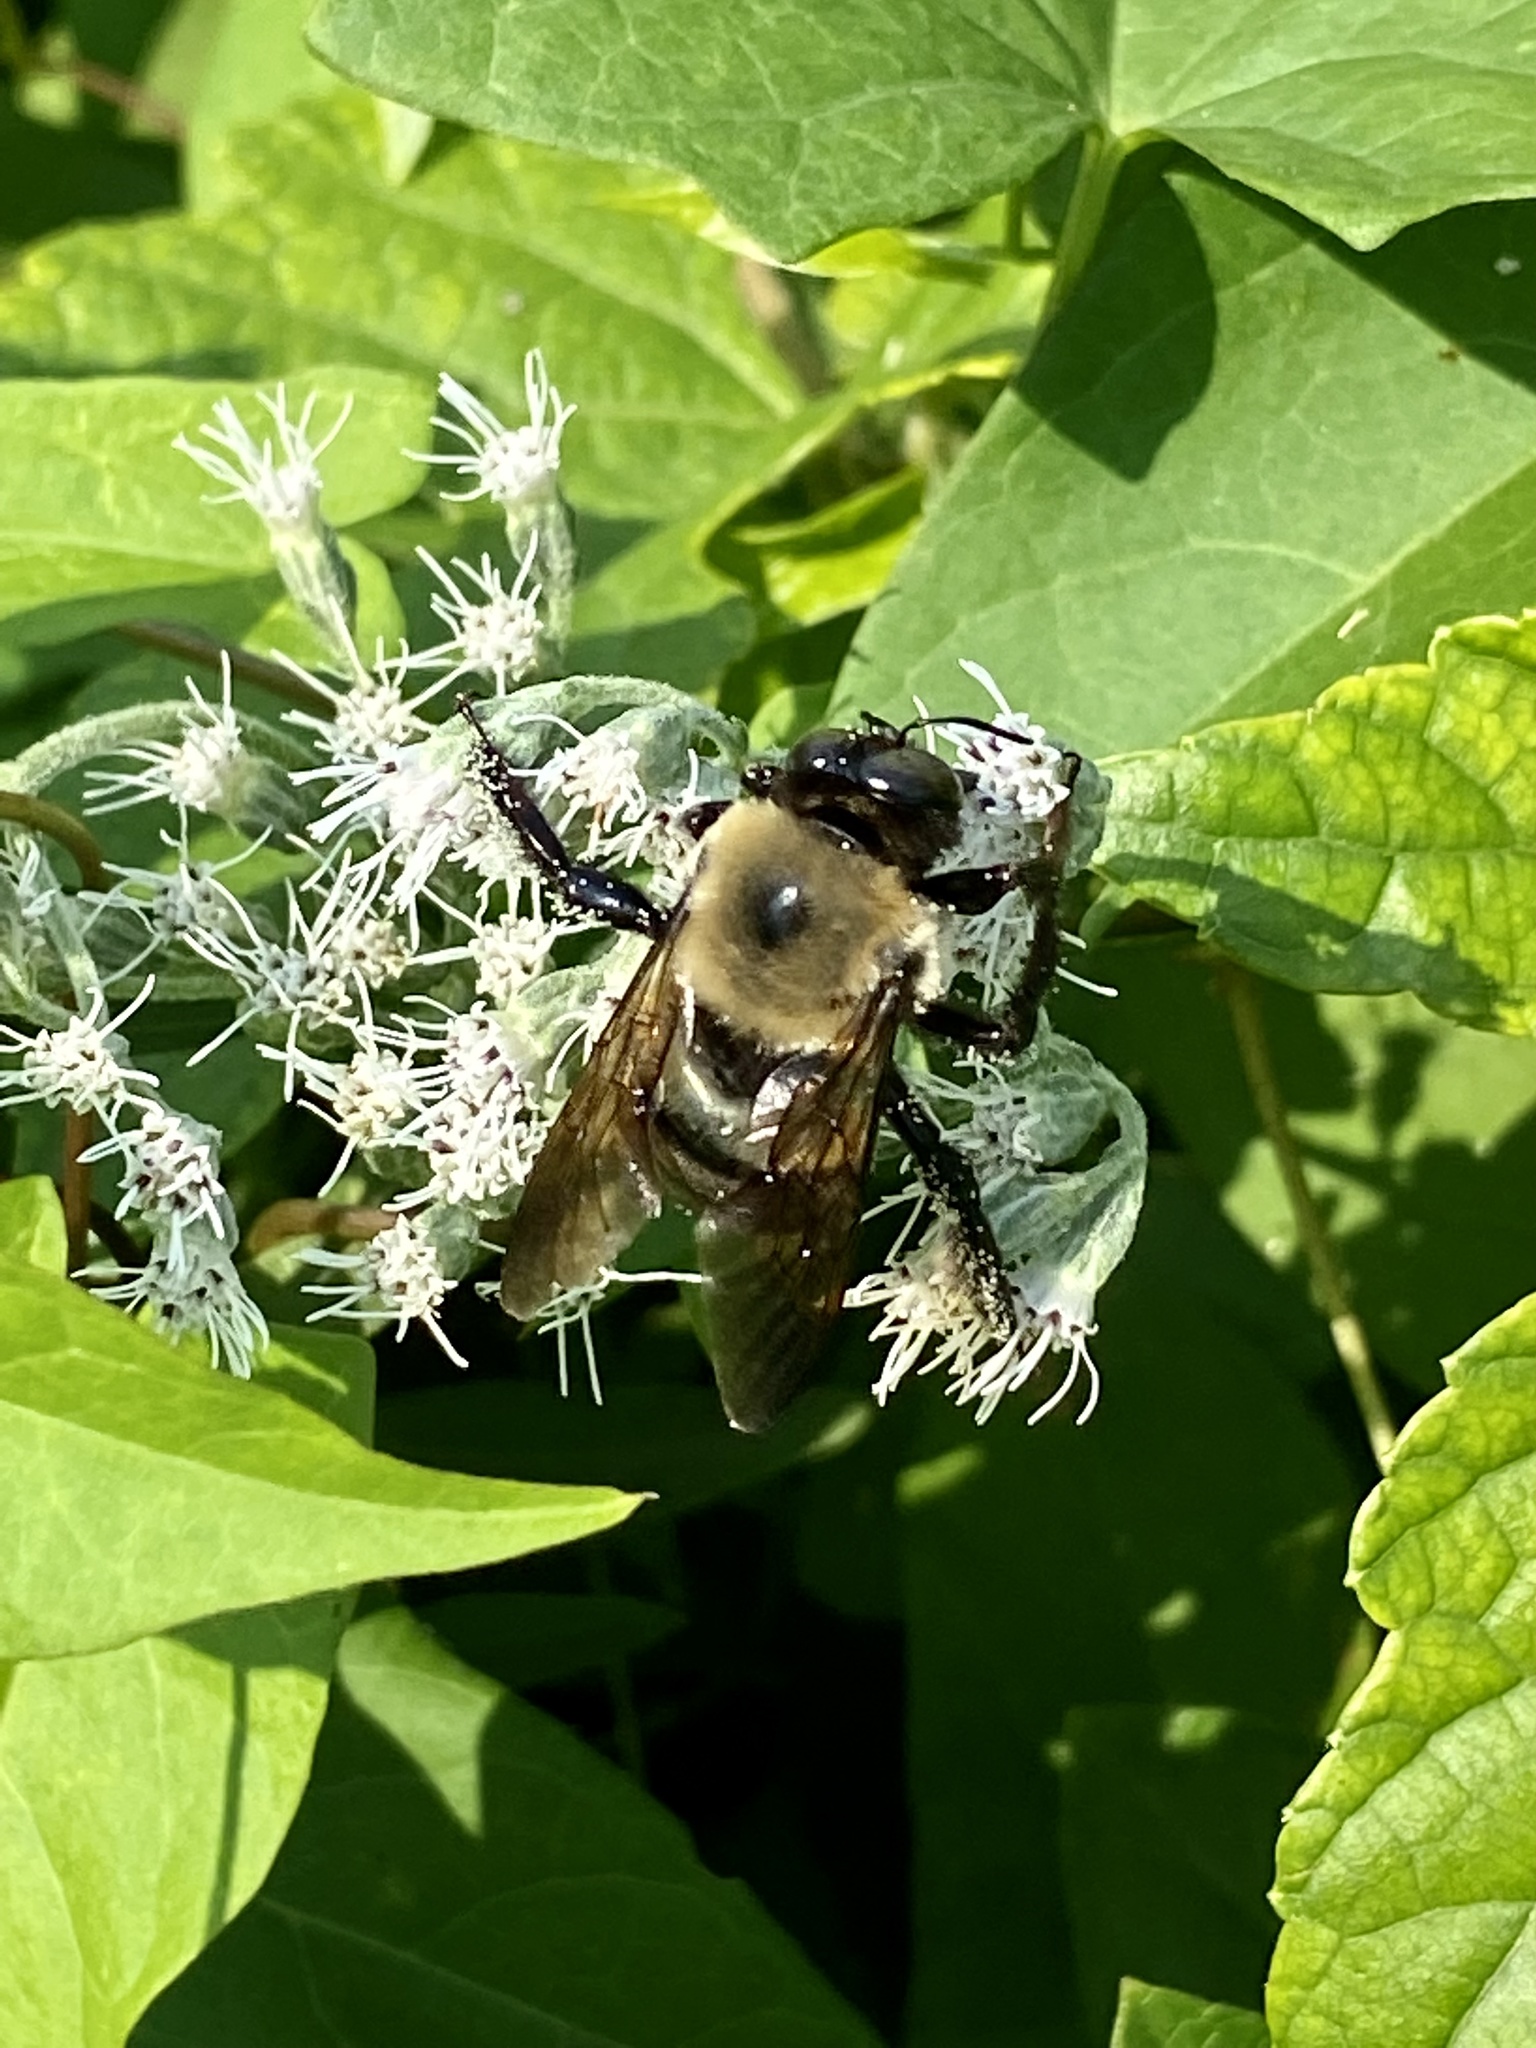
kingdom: Animalia
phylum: Arthropoda
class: Insecta
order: Hymenoptera
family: Apidae
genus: Xylocopa
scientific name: Xylocopa virginica
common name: Carpenter bee
